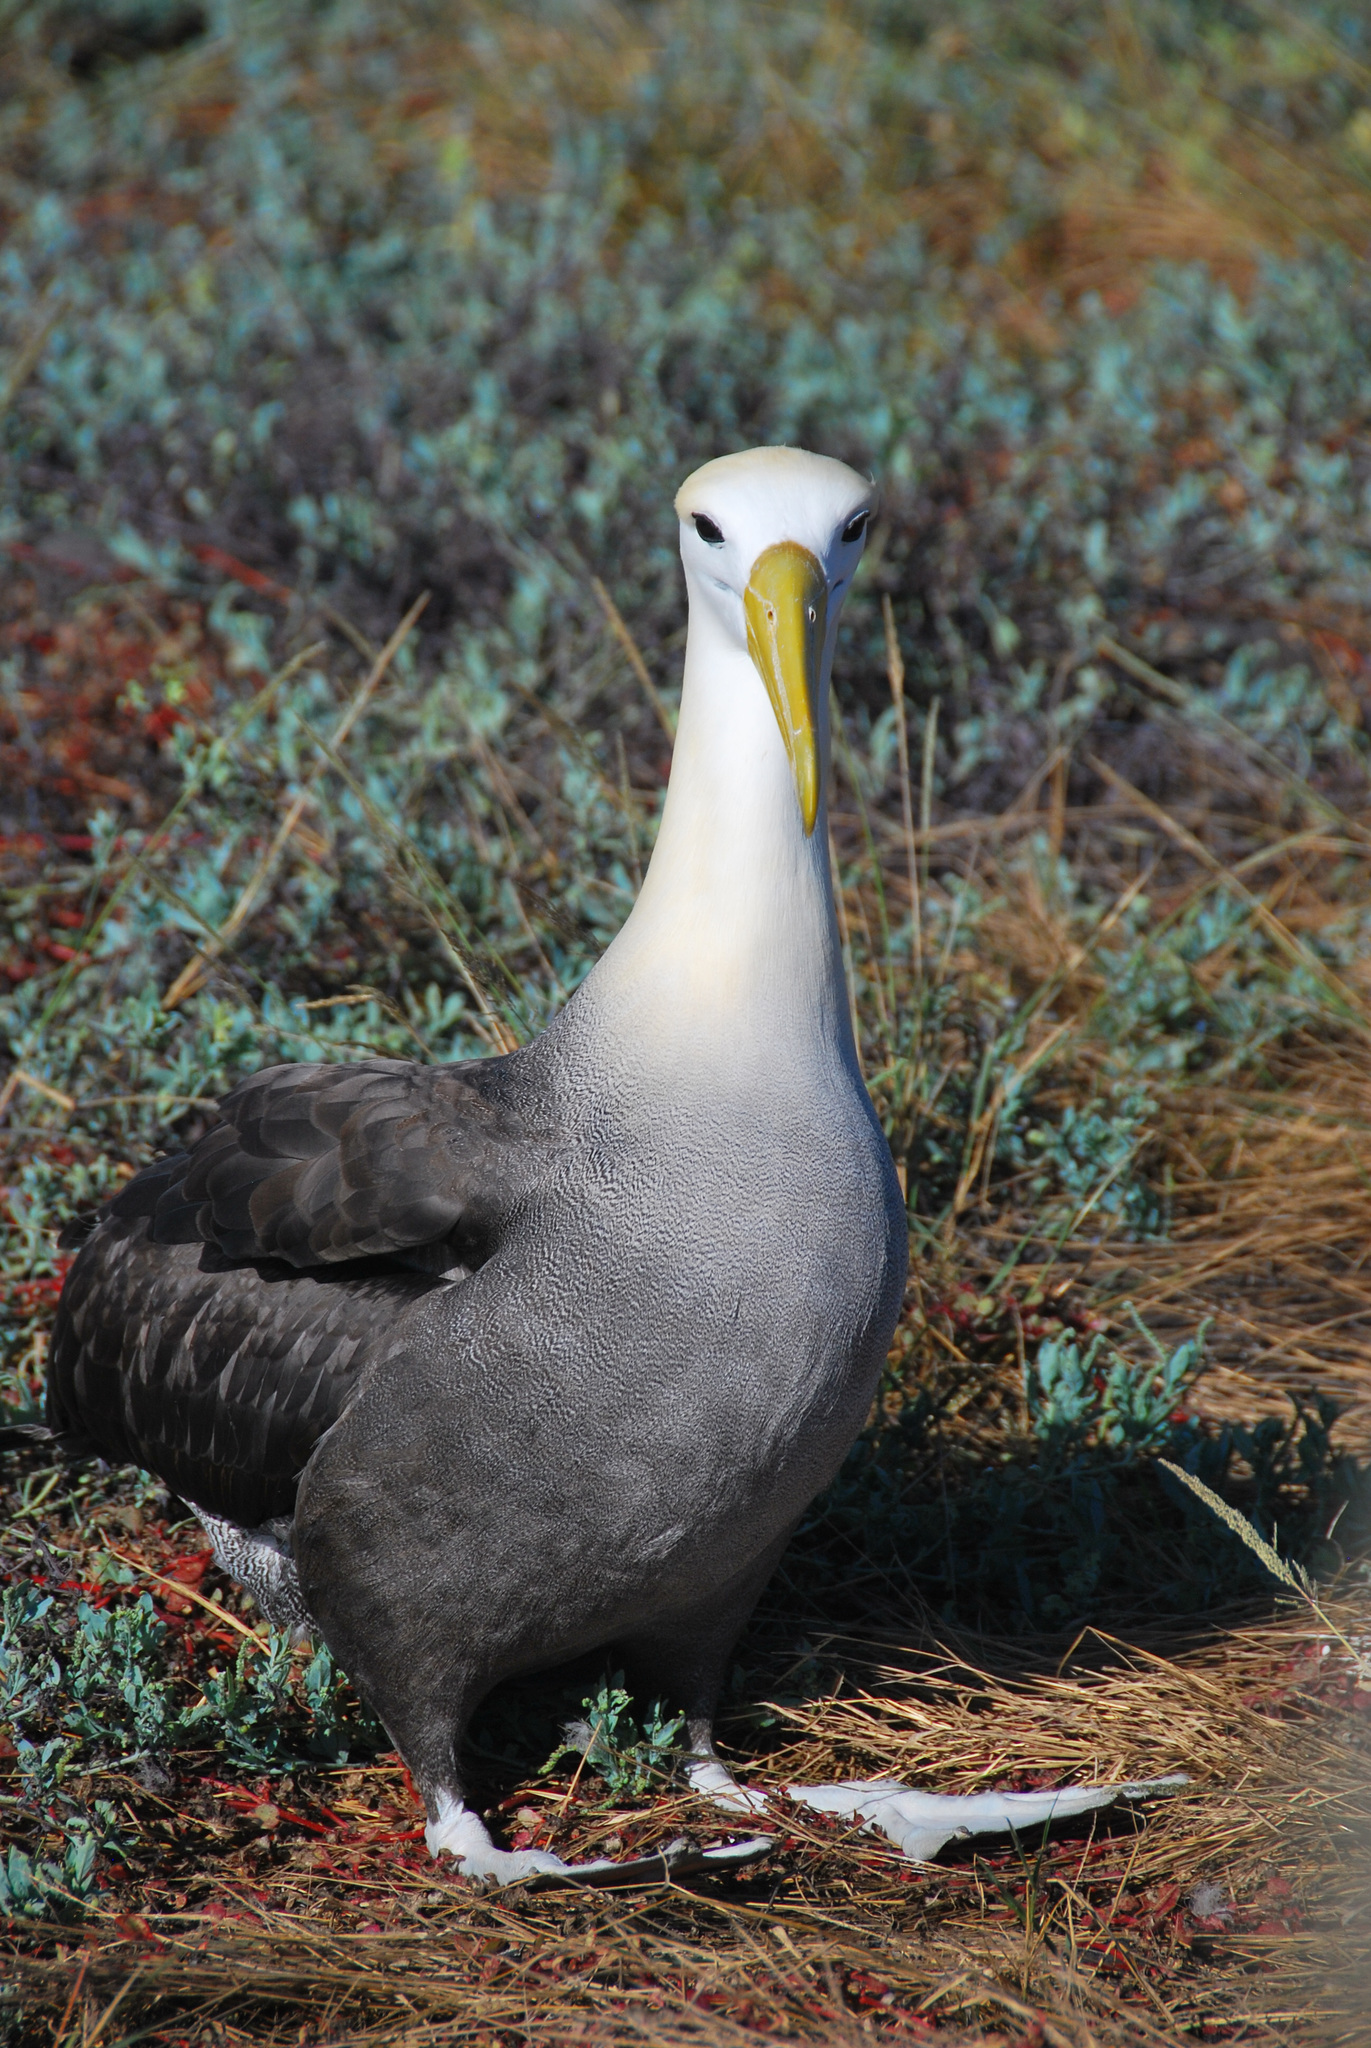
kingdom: Animalia
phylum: Chordata
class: Aves
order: Procellariiformes
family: Diomedeidae
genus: Phoebastria
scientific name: Phoebastria irrorata
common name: Waved albatross
